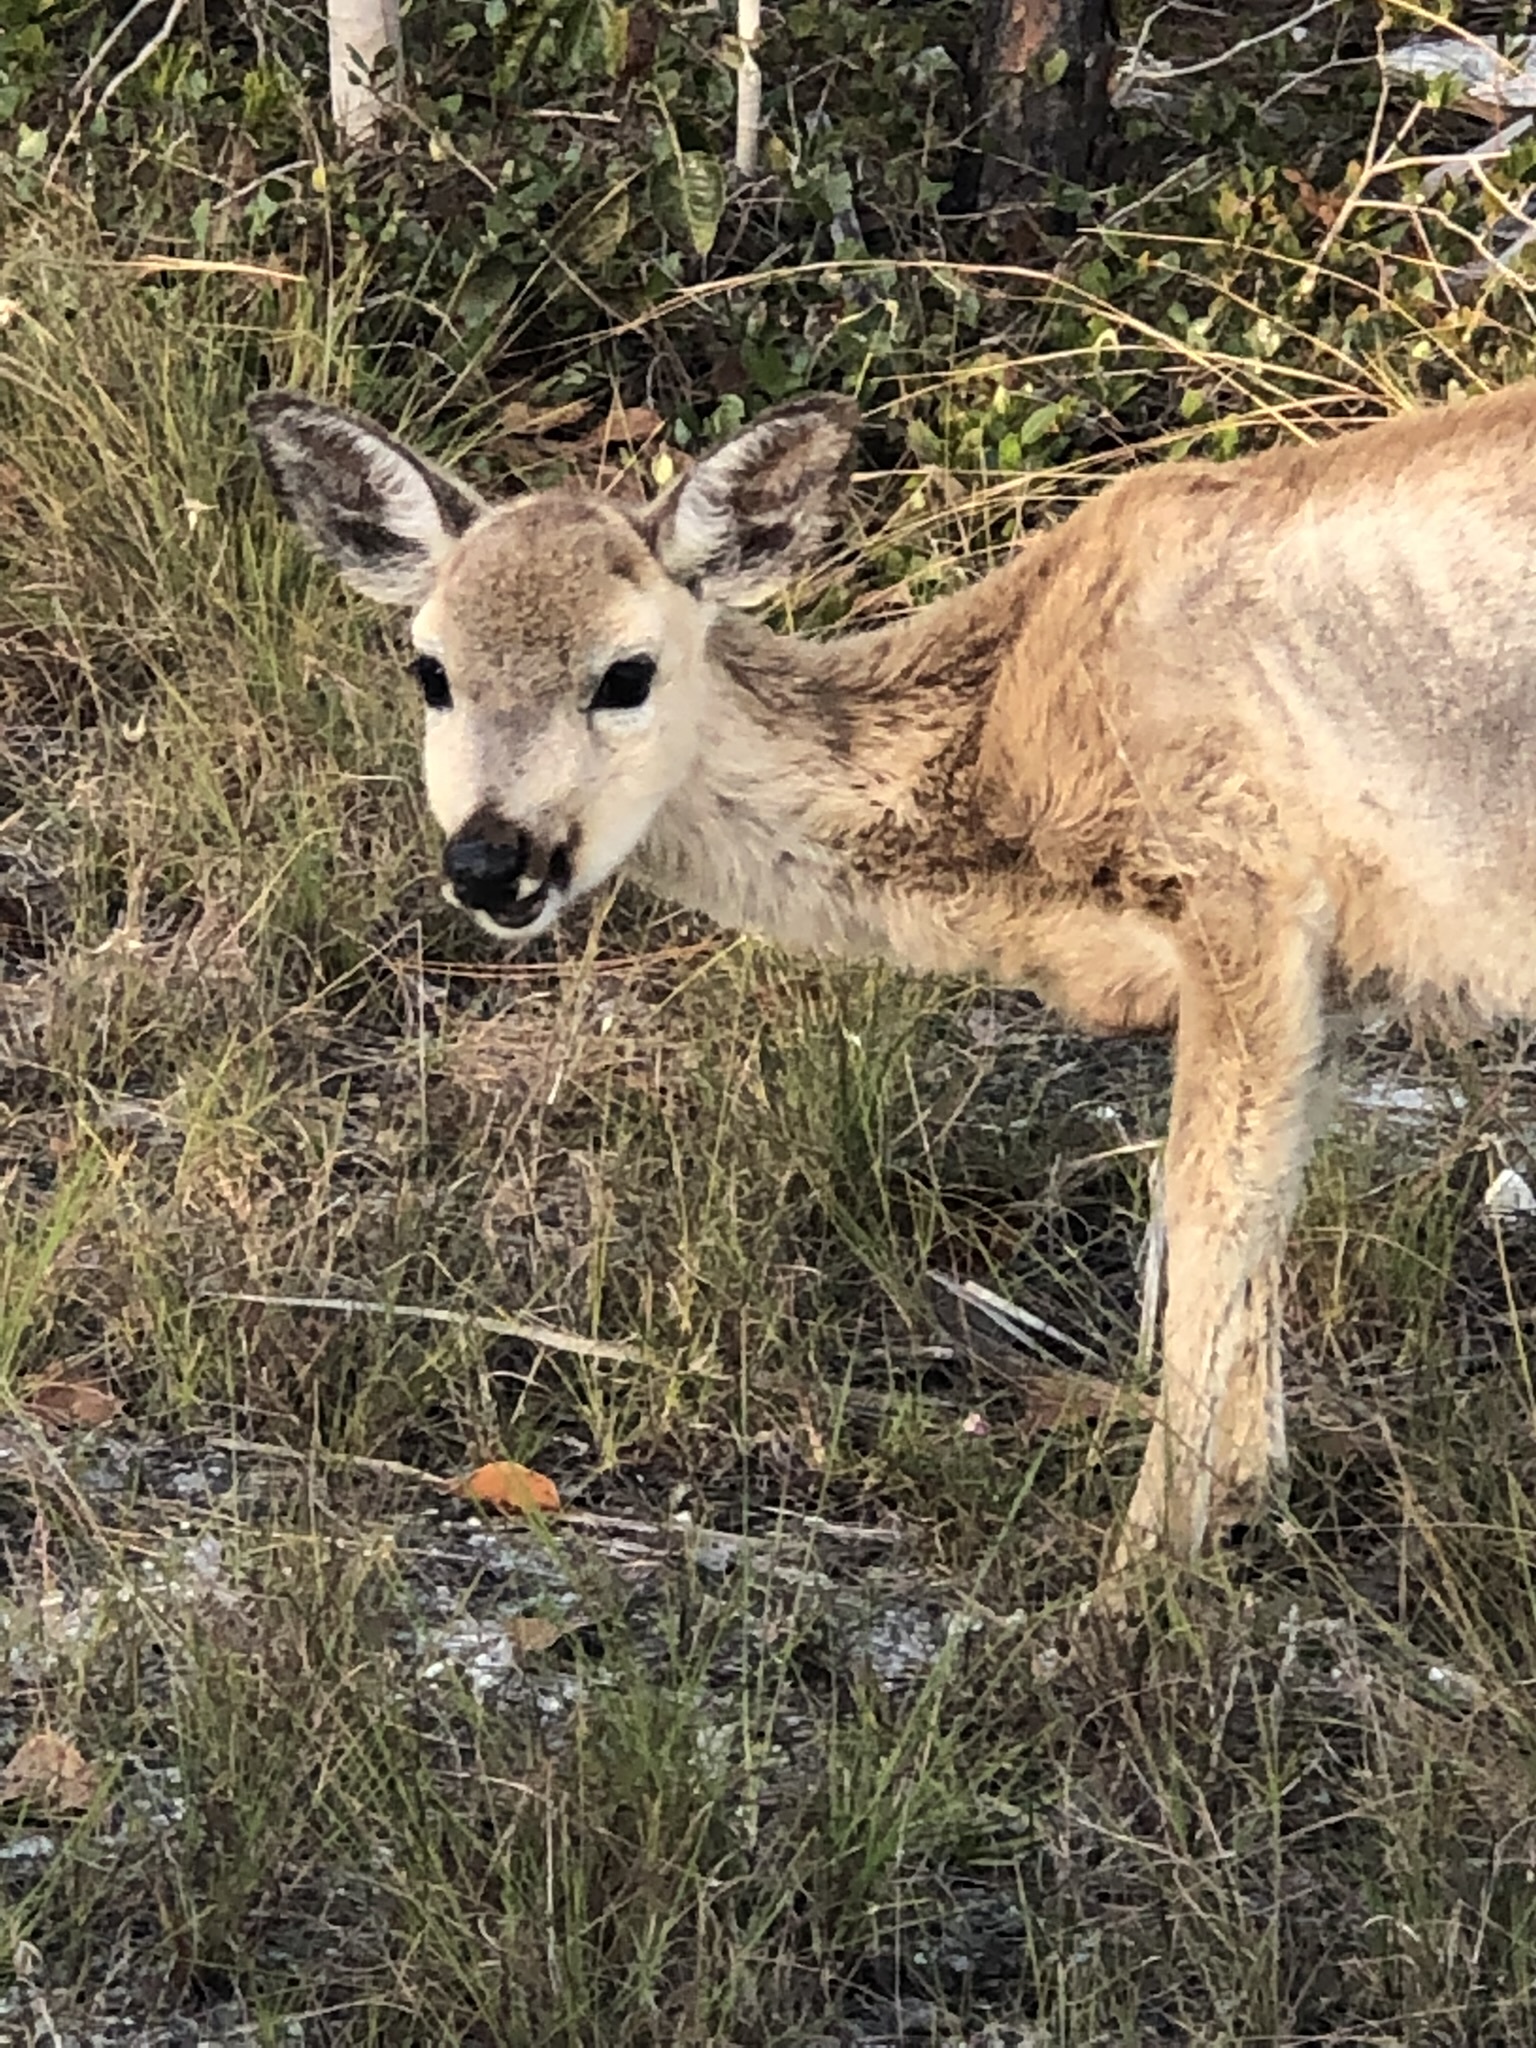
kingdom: Animalia
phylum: Chordata
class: Mammalia
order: Artiodactyla
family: Cervidae
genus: Odocoileus
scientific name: Odocoileus virginianus
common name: White-tailed deer
